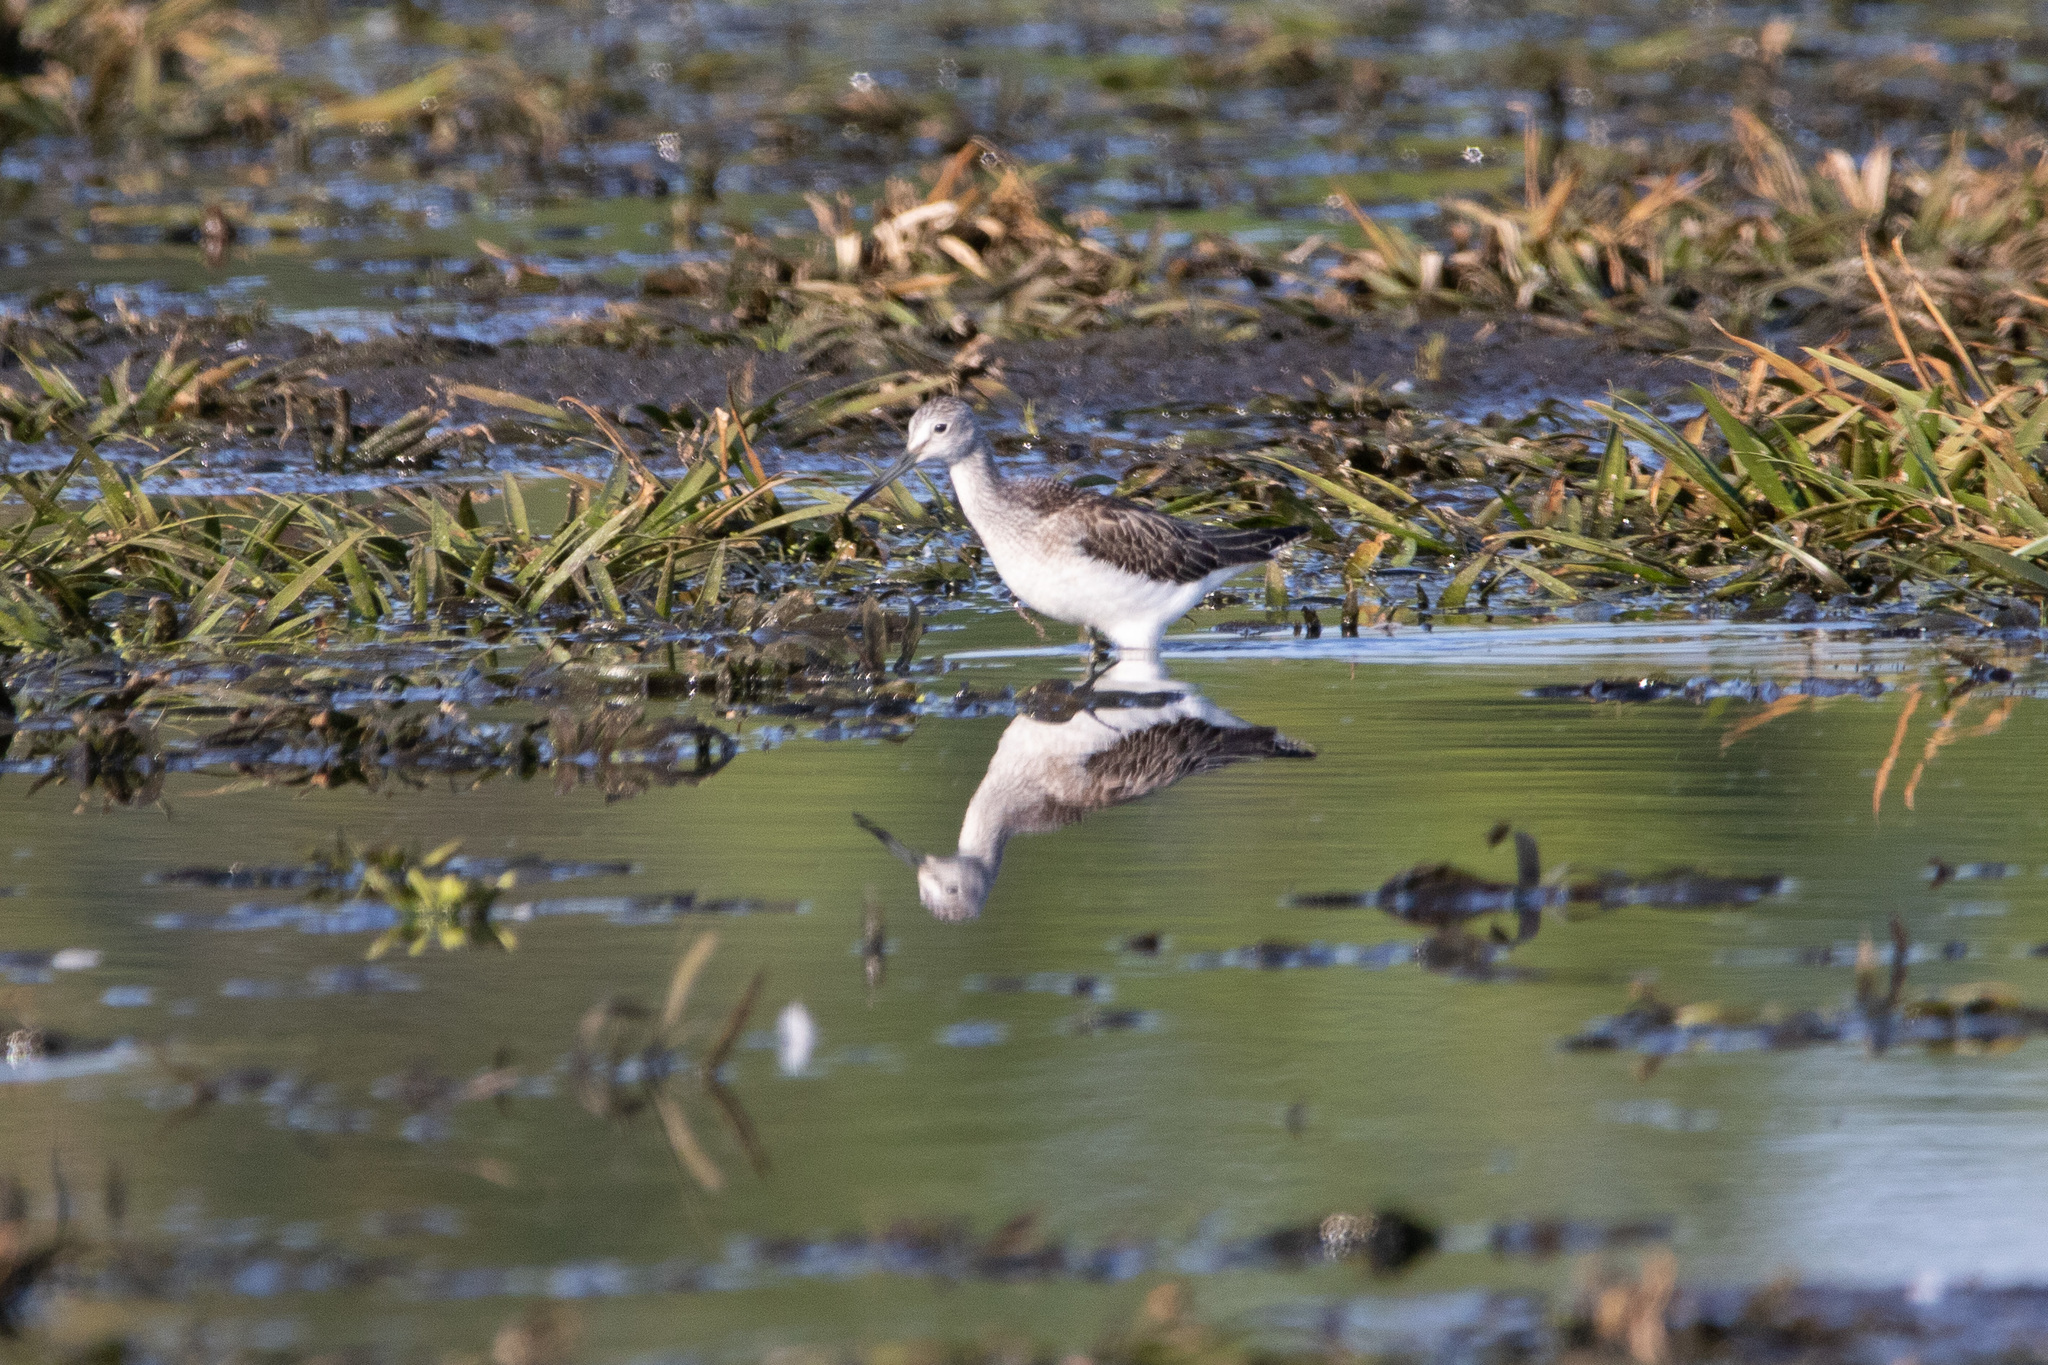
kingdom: Animalia
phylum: Chordata
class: Aves
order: Charadriiformes
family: Scolopacidae
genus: Tringa
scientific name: Tringa nebularia
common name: Common greenshank
